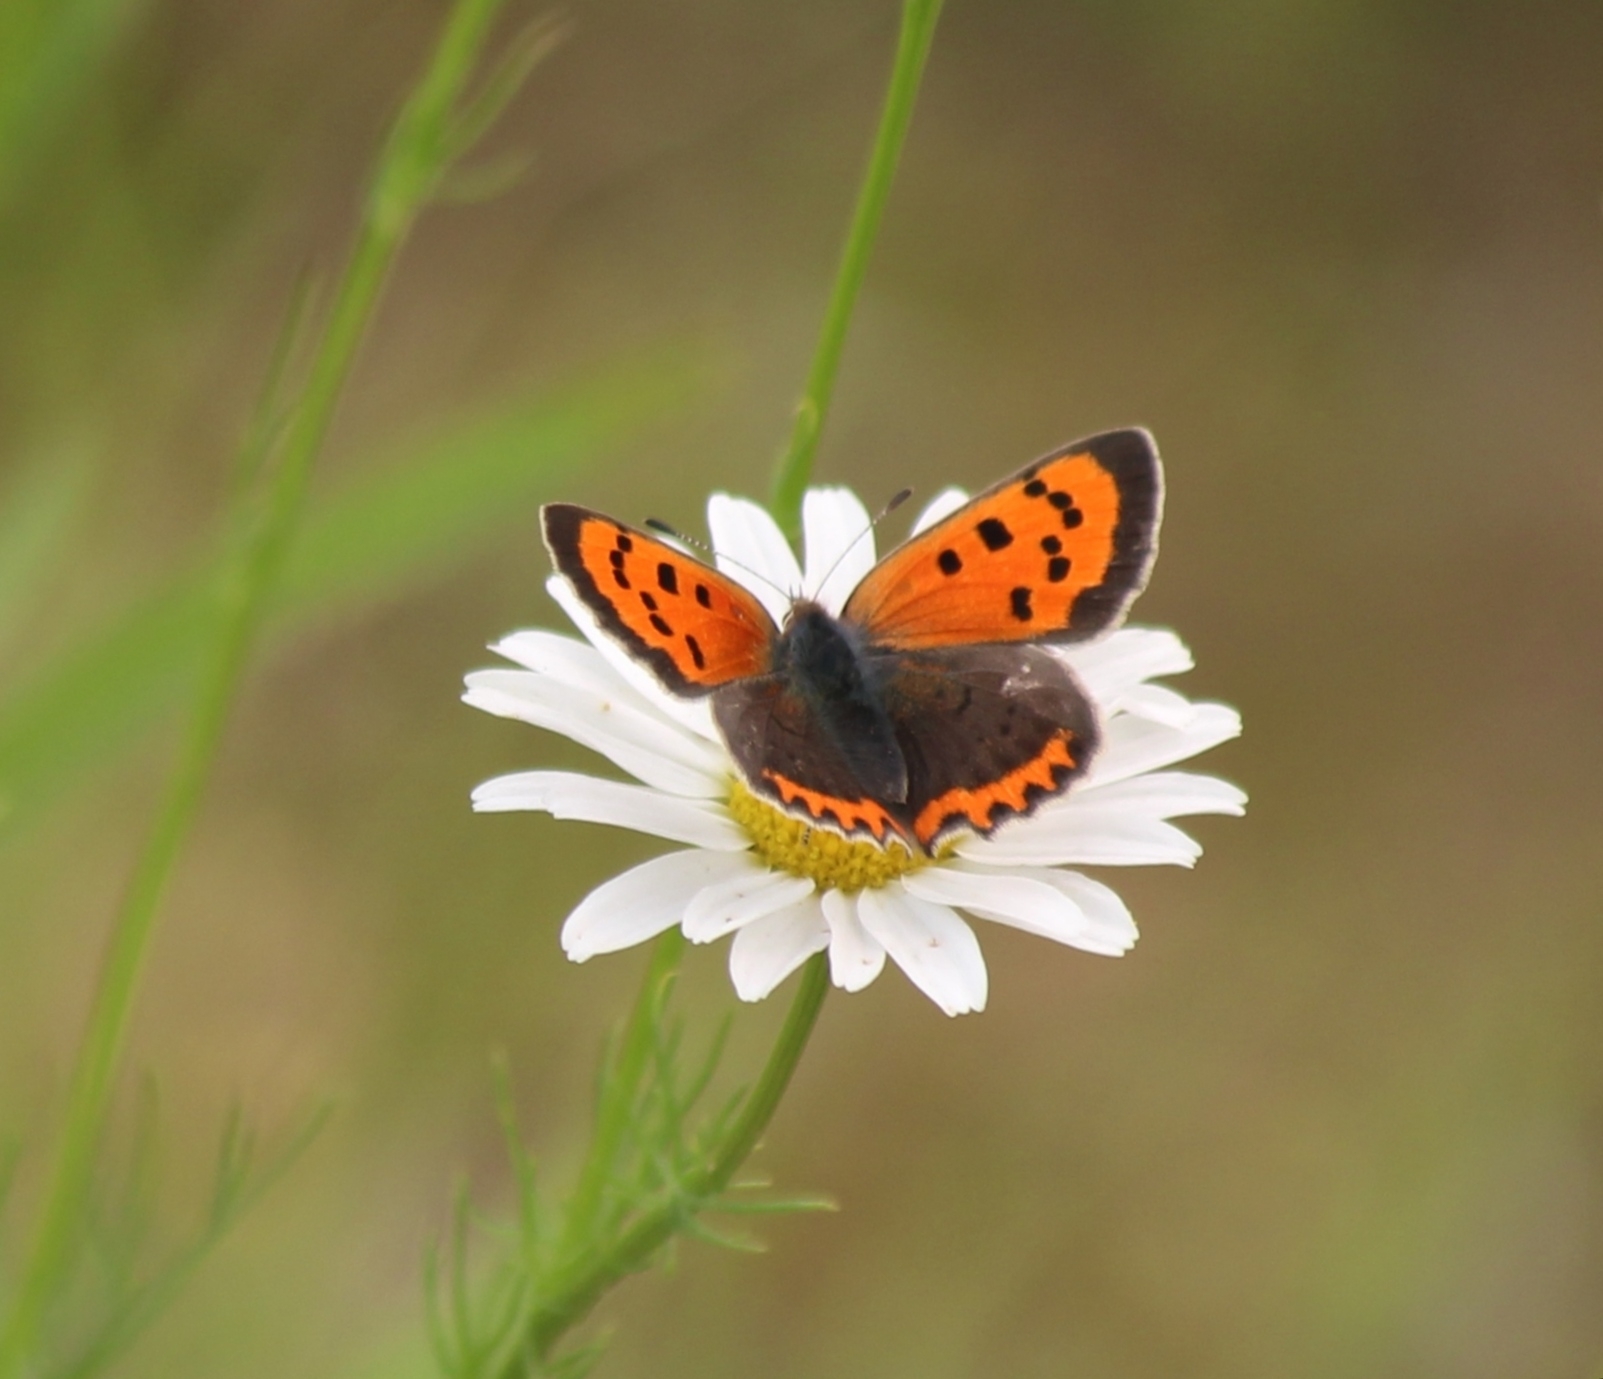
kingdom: Animalia
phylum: Arthropoda
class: Insecta
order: Lepidoptera
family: Lycaenidae
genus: Lycaena
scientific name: Lycaena phlaeas
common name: Small copper
